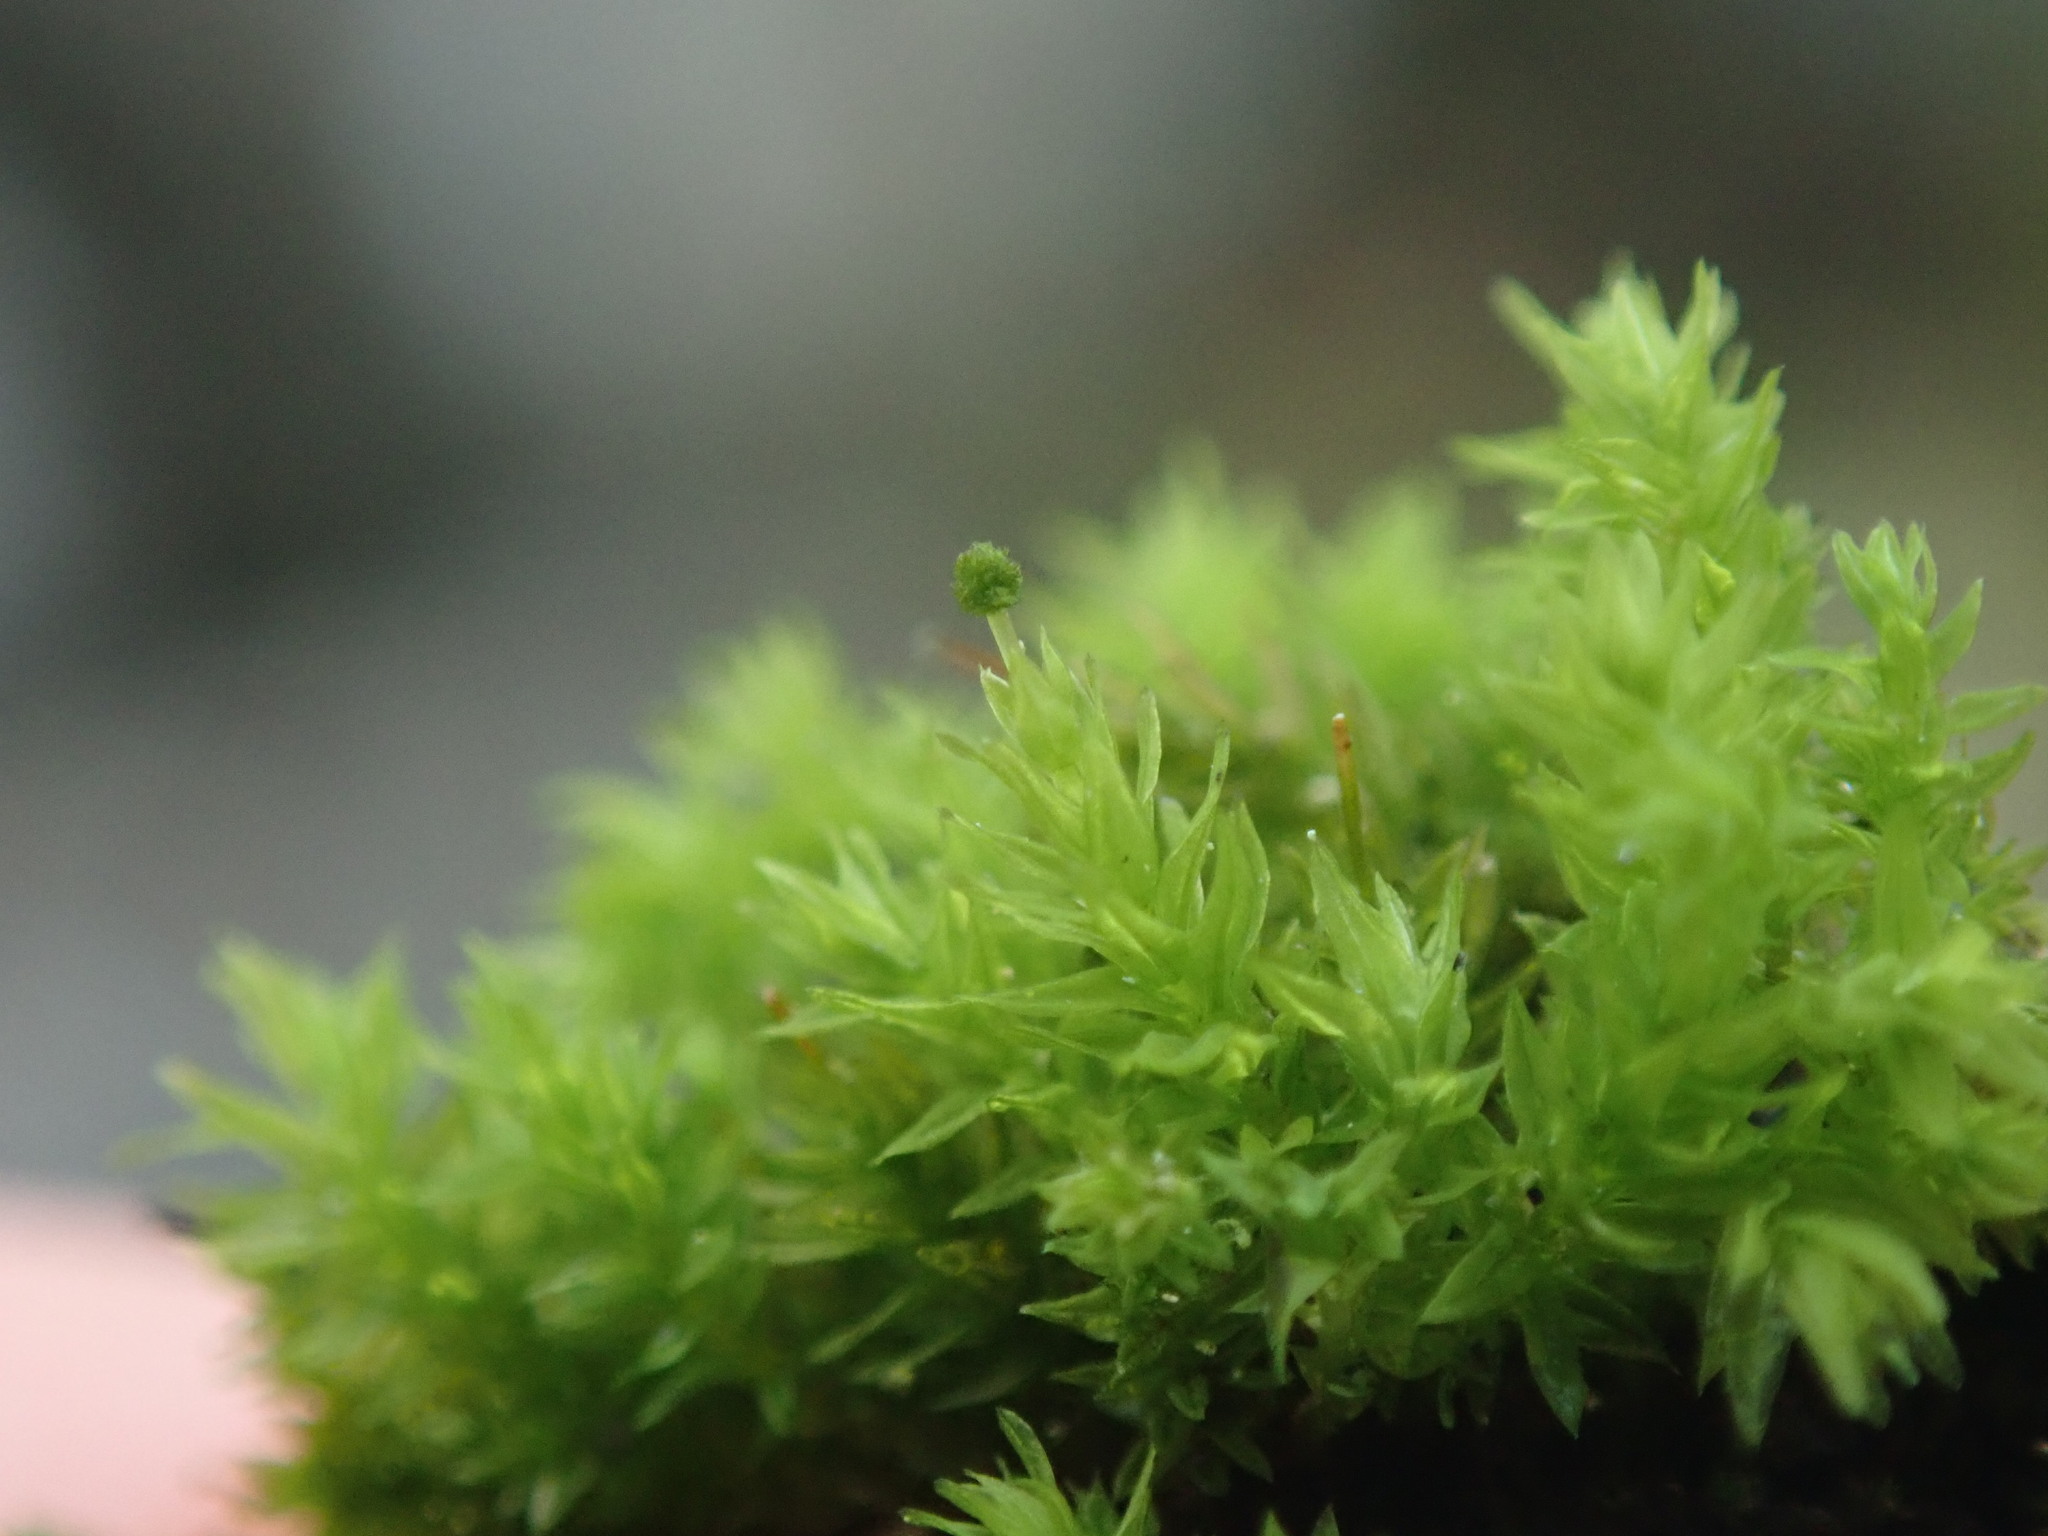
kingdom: Plantae
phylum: Bryophyta
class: Bryopsida
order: Aulacomniales
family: Aulacomniaceae
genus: Aulacomnium
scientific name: Aulacomnium androgynum
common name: Little groove moss
